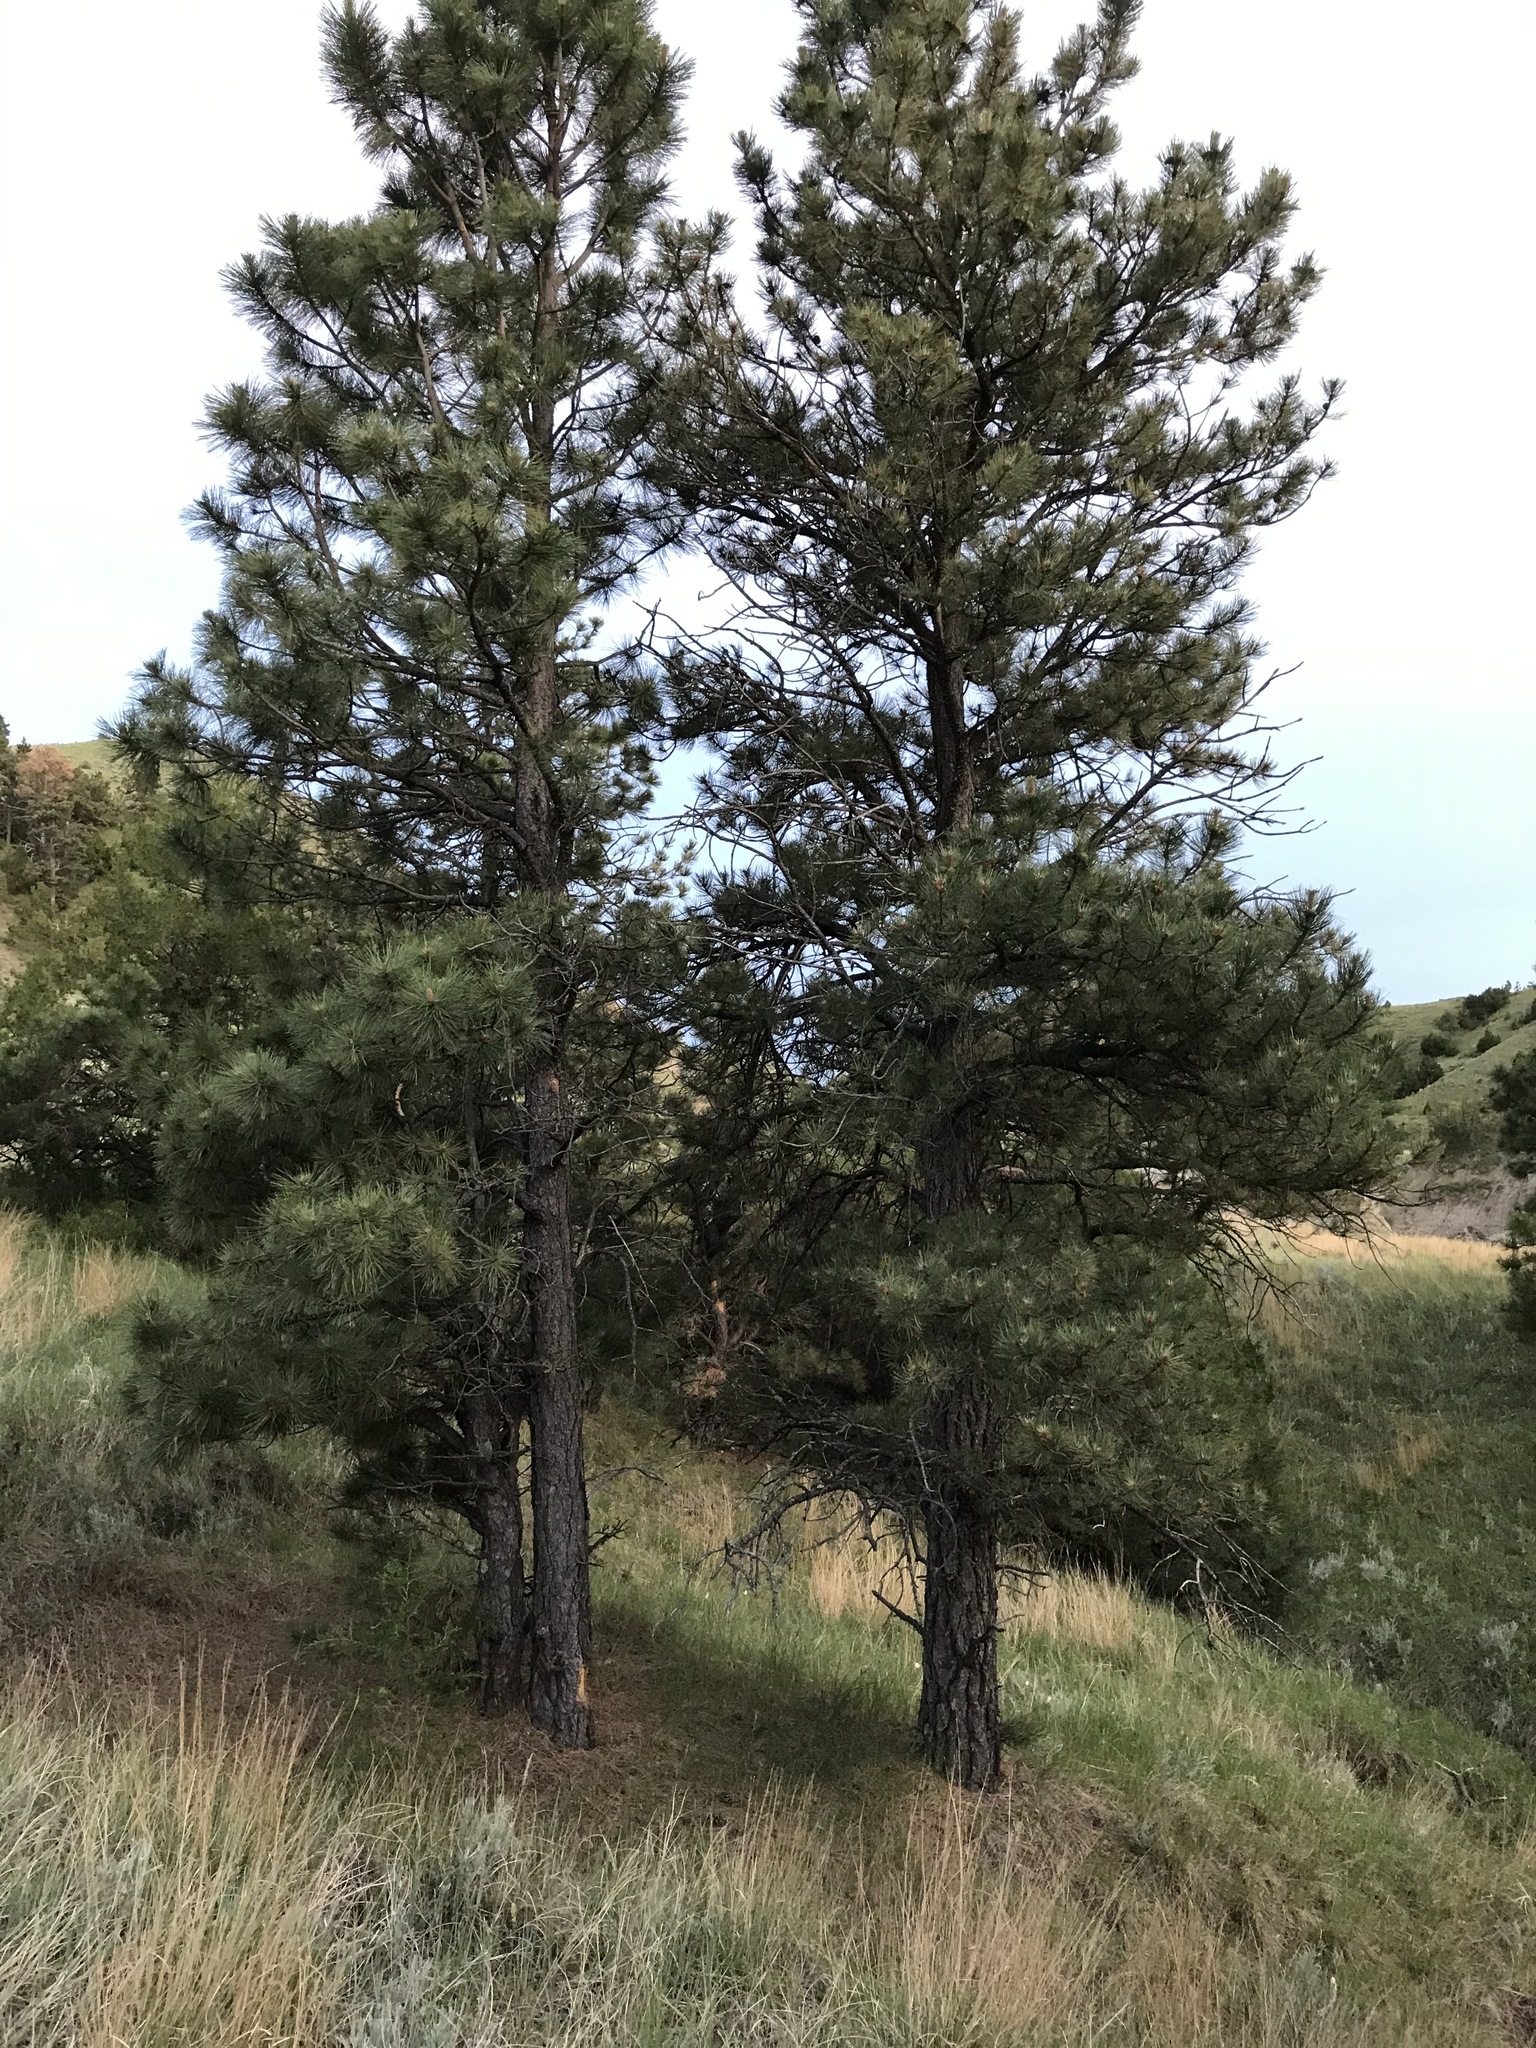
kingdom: Plantae
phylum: Tracheophyta
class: Pinopsida
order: Pinales
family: Pinaceae
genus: Pinus
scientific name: Pinus ponderosa
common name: Western yellow-pine
